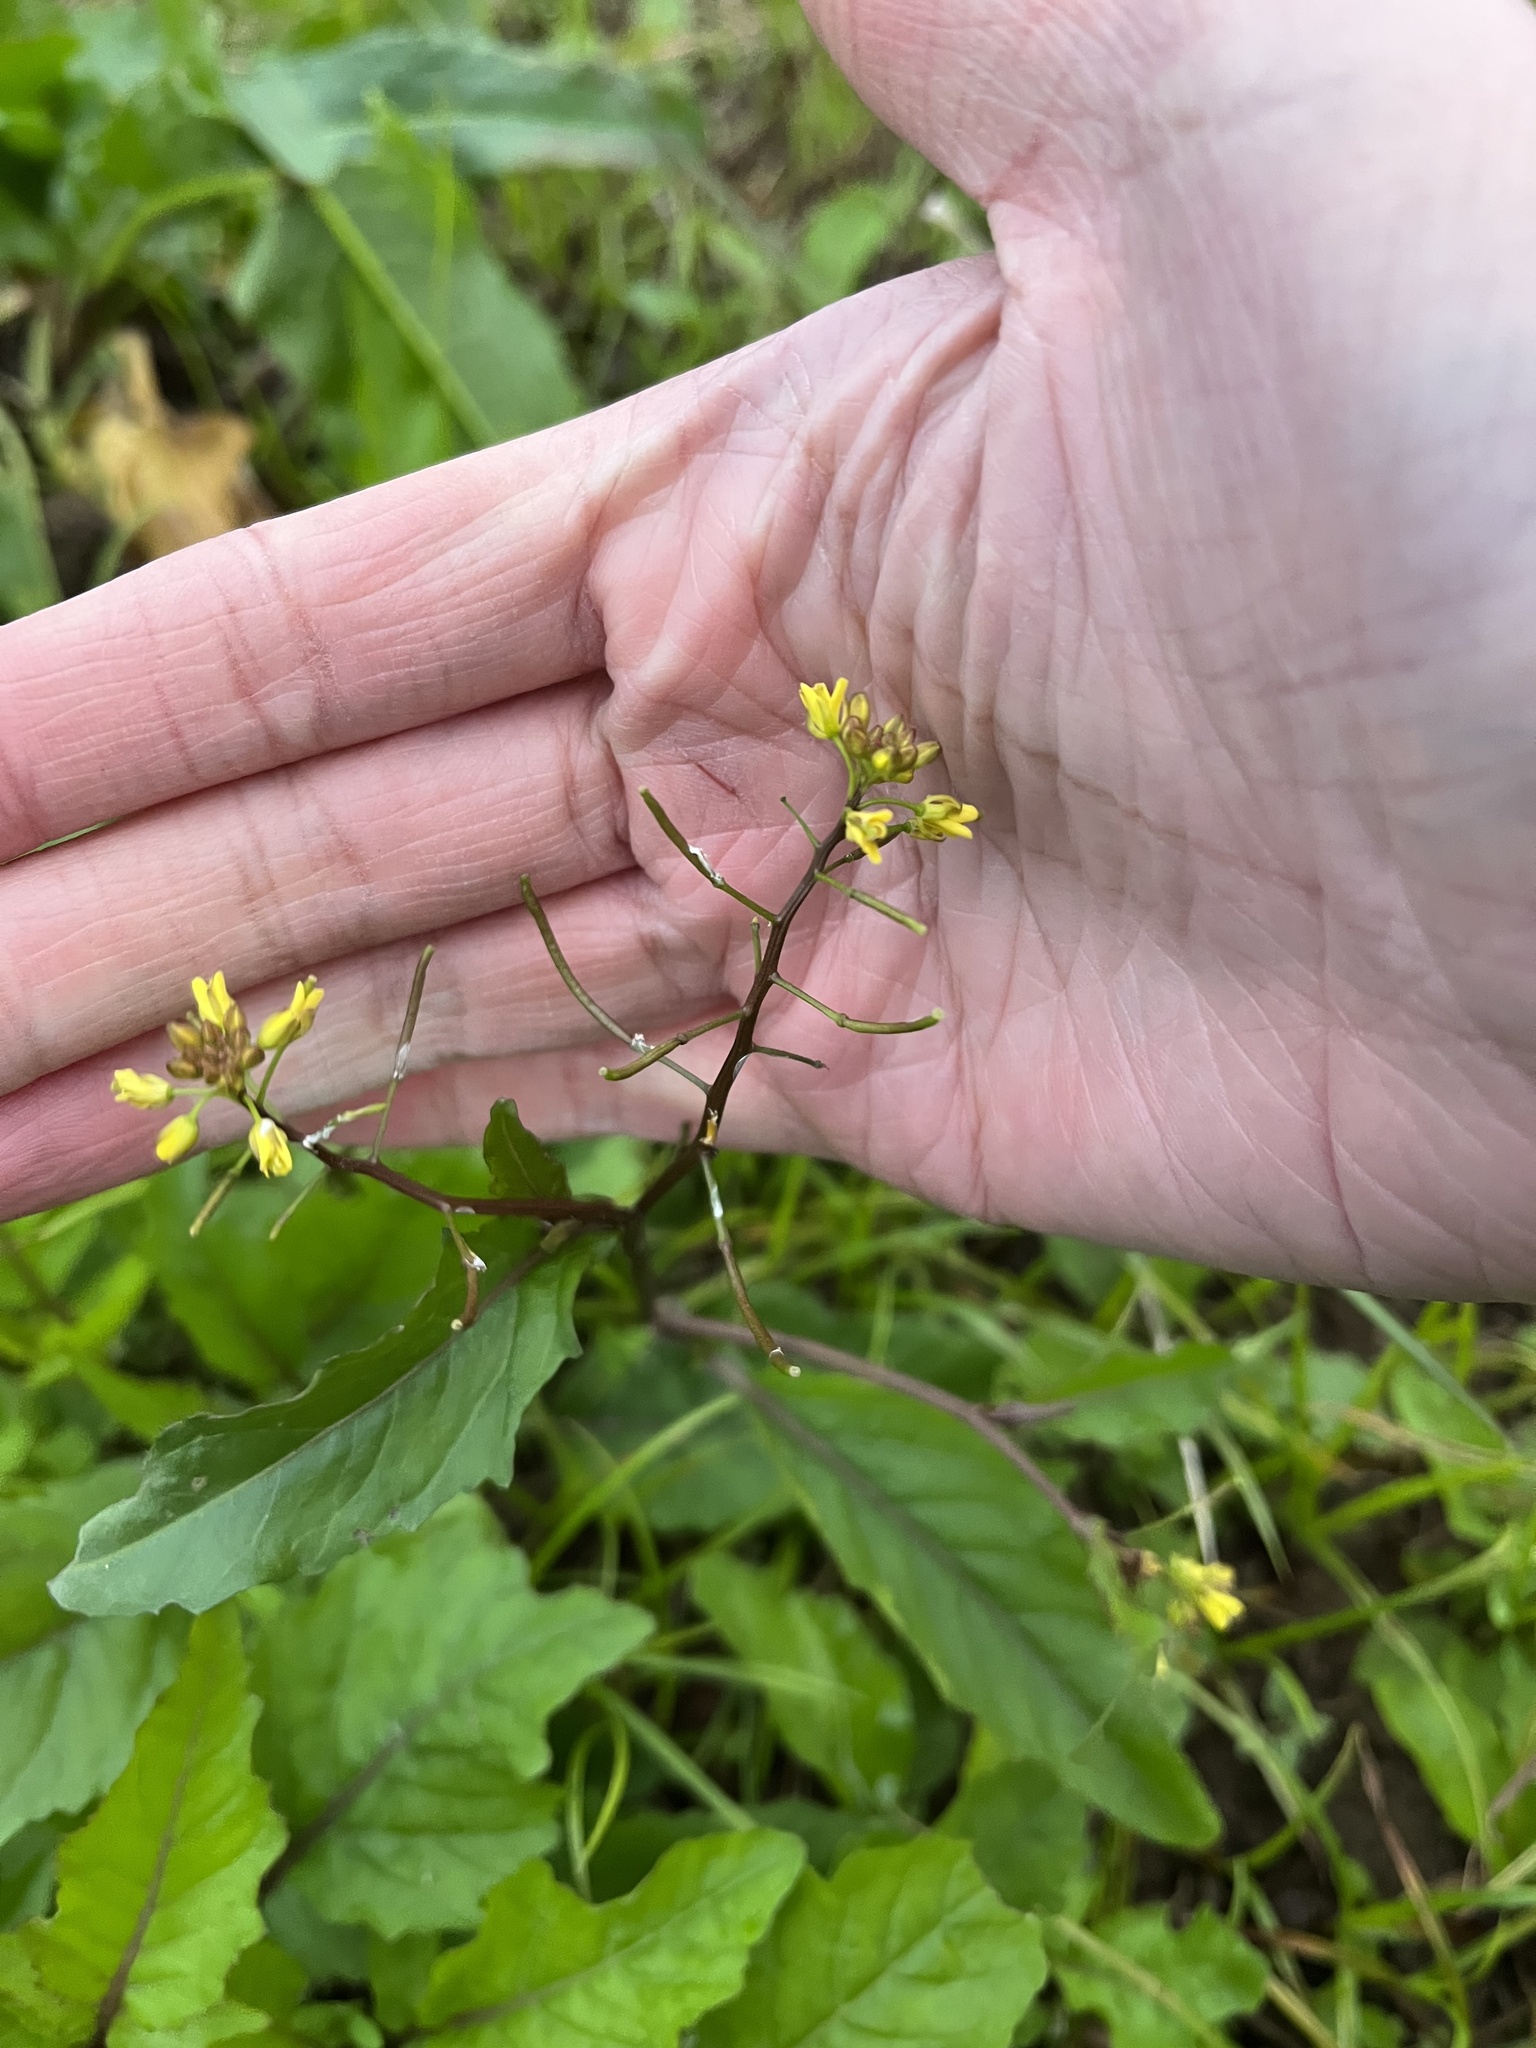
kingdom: Plantae
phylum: Tracheophyta
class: Magnoliopsida
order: Brassicales
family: Brassicaceae
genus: Rorippa
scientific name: Rorippa indica
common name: Variableleaf yellowcress
